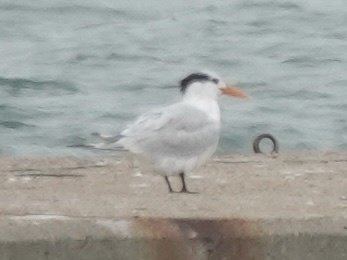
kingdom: Animalia
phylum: Chordata
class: Aves
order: Charadriiformes
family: Laridae
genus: Thalasseus
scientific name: Thalasseus maximus
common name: Royal tern
